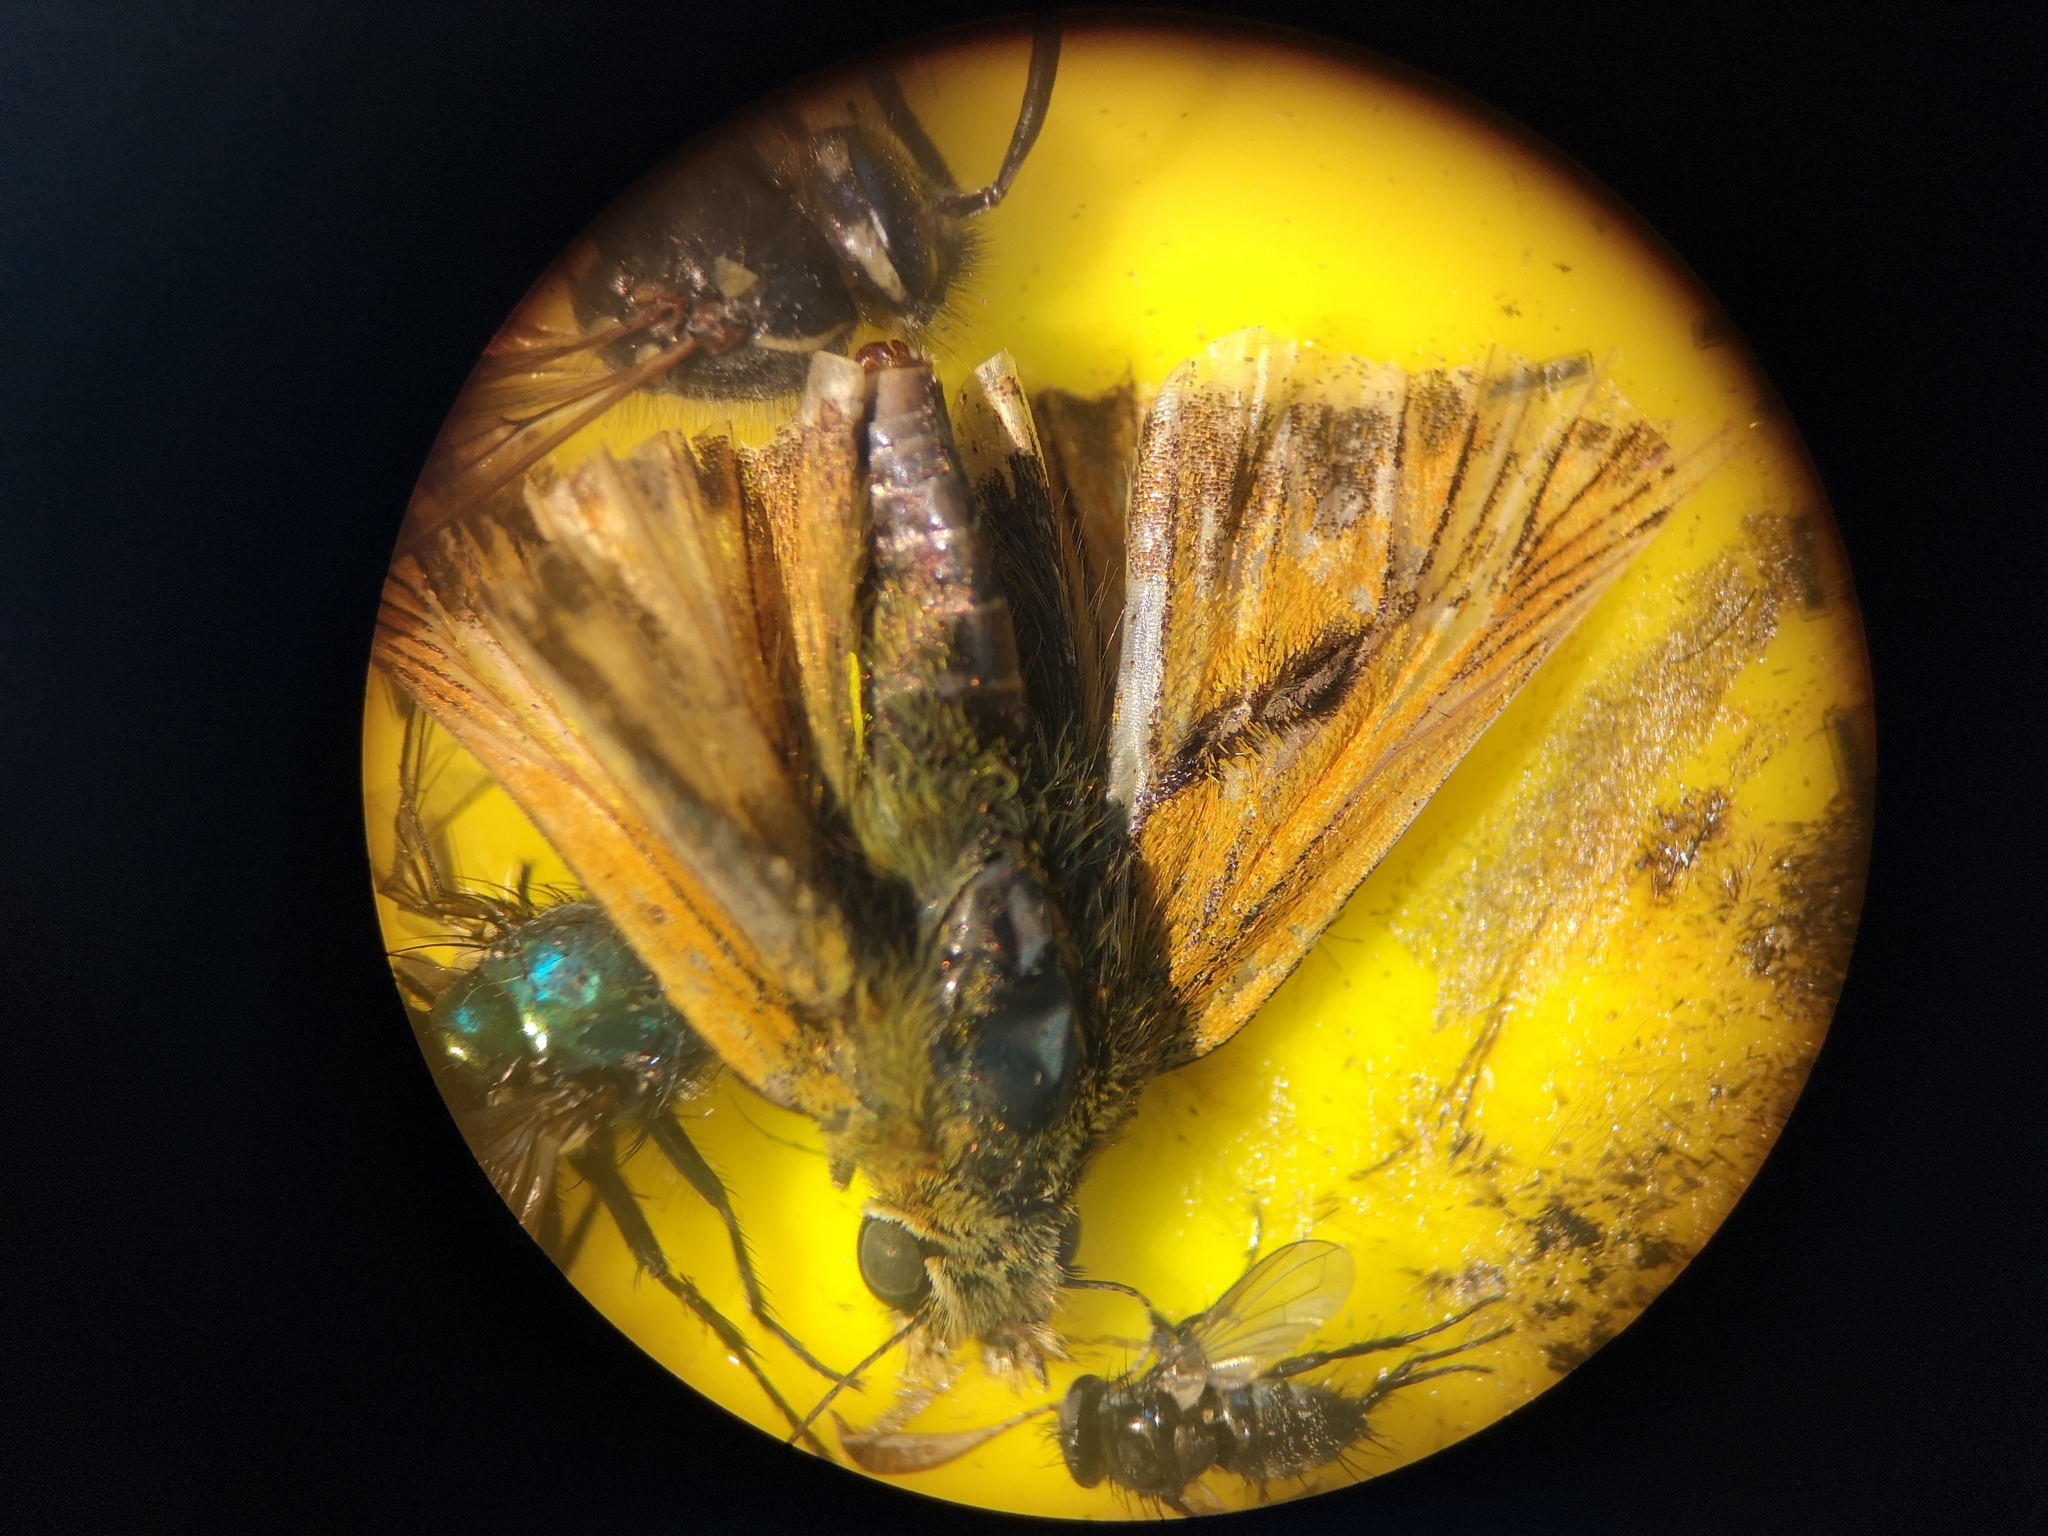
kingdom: Animalia
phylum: Arthropoda
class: Insecta
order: Lepidoptera
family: Hesperiidae
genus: Ochlodes
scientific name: Ochlodes venata
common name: Large skipper
